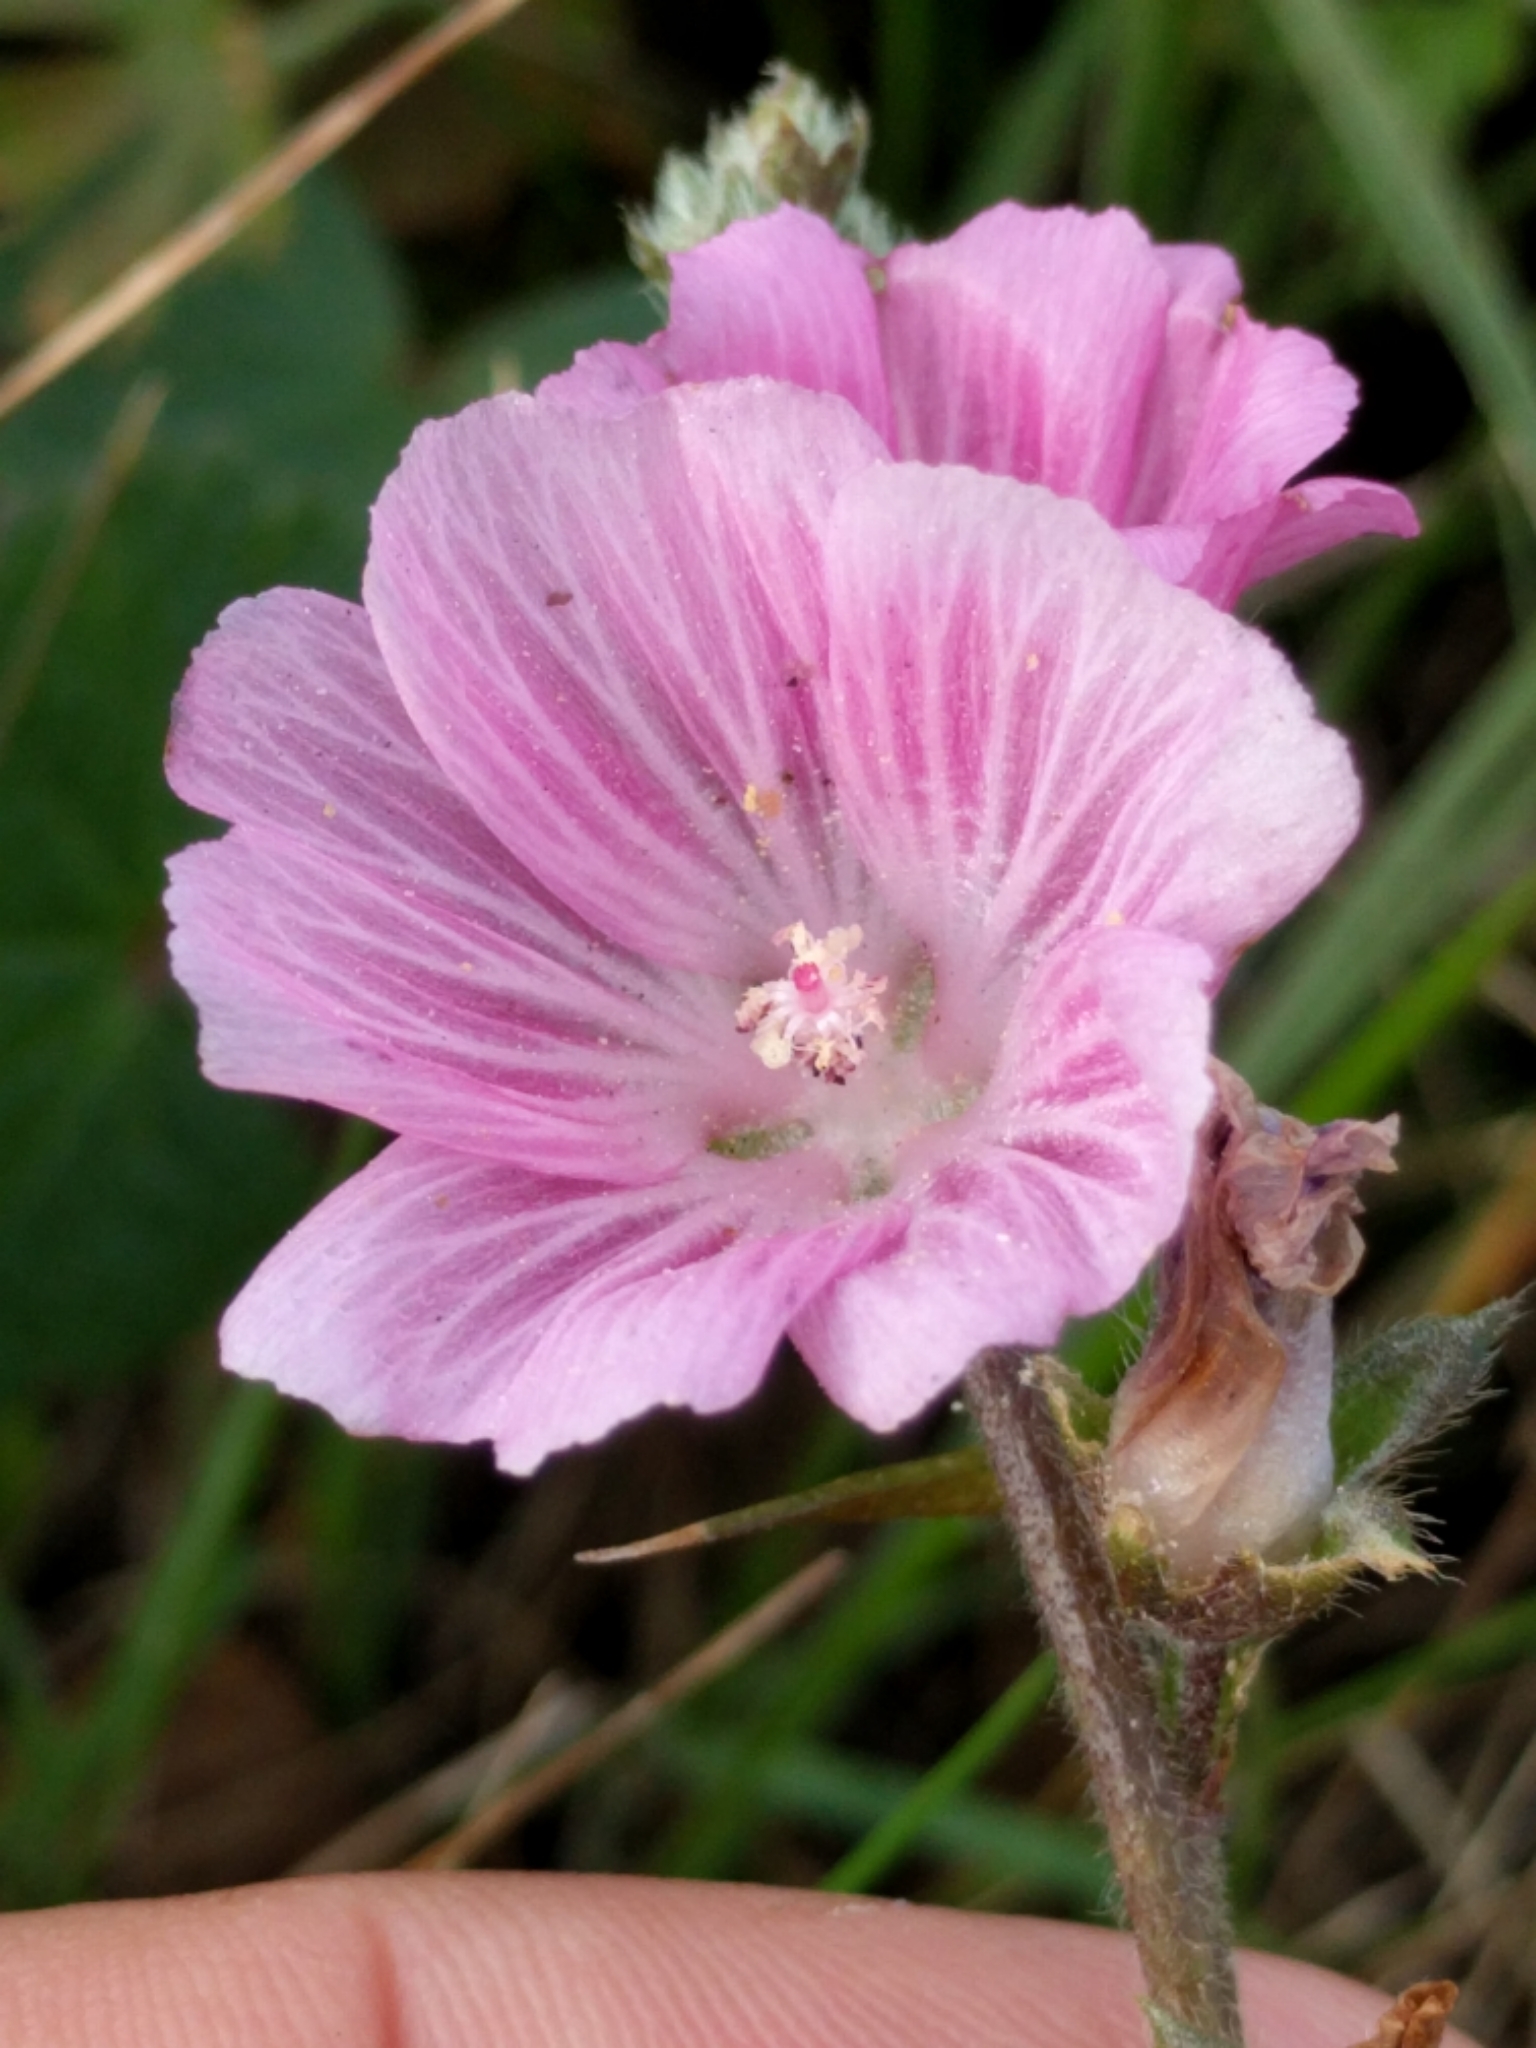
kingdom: Plantae
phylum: Tracheophyta
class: Magnoliopsida
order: Malvales
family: Malvaceae
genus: Sidalcea
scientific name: Sidalcea malviflora
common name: Greek mallow
